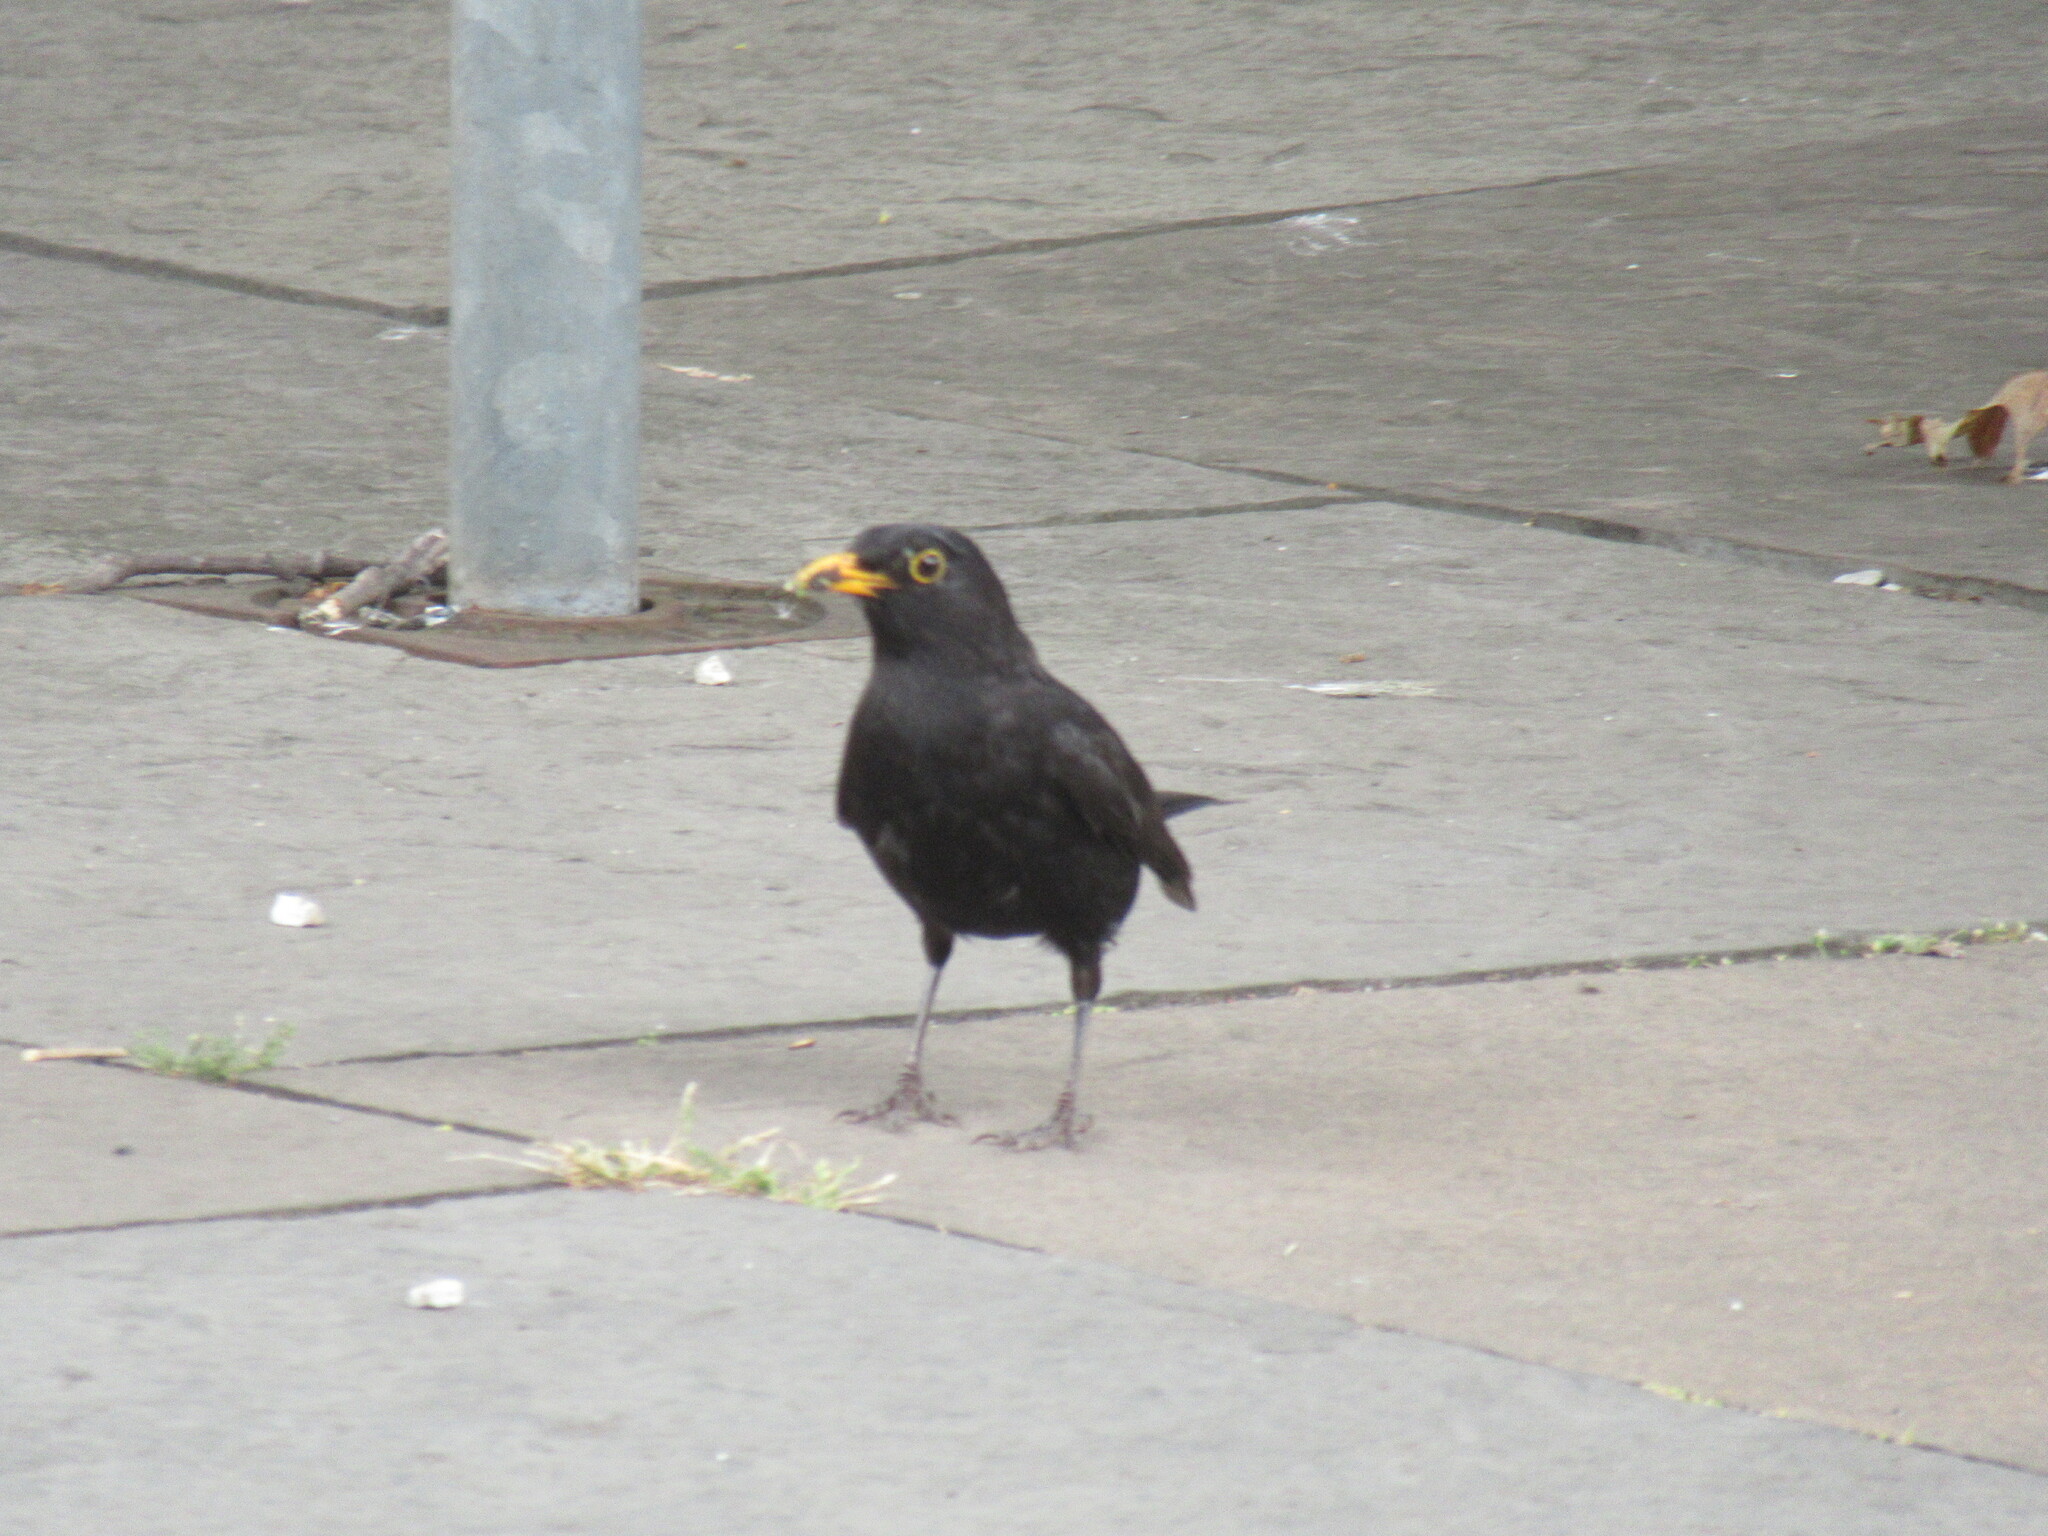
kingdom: Animalia
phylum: Chordata
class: Aves
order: Passeriformes
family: Turdidae
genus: Turdus
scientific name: Turdus merula
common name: Common blackbird
